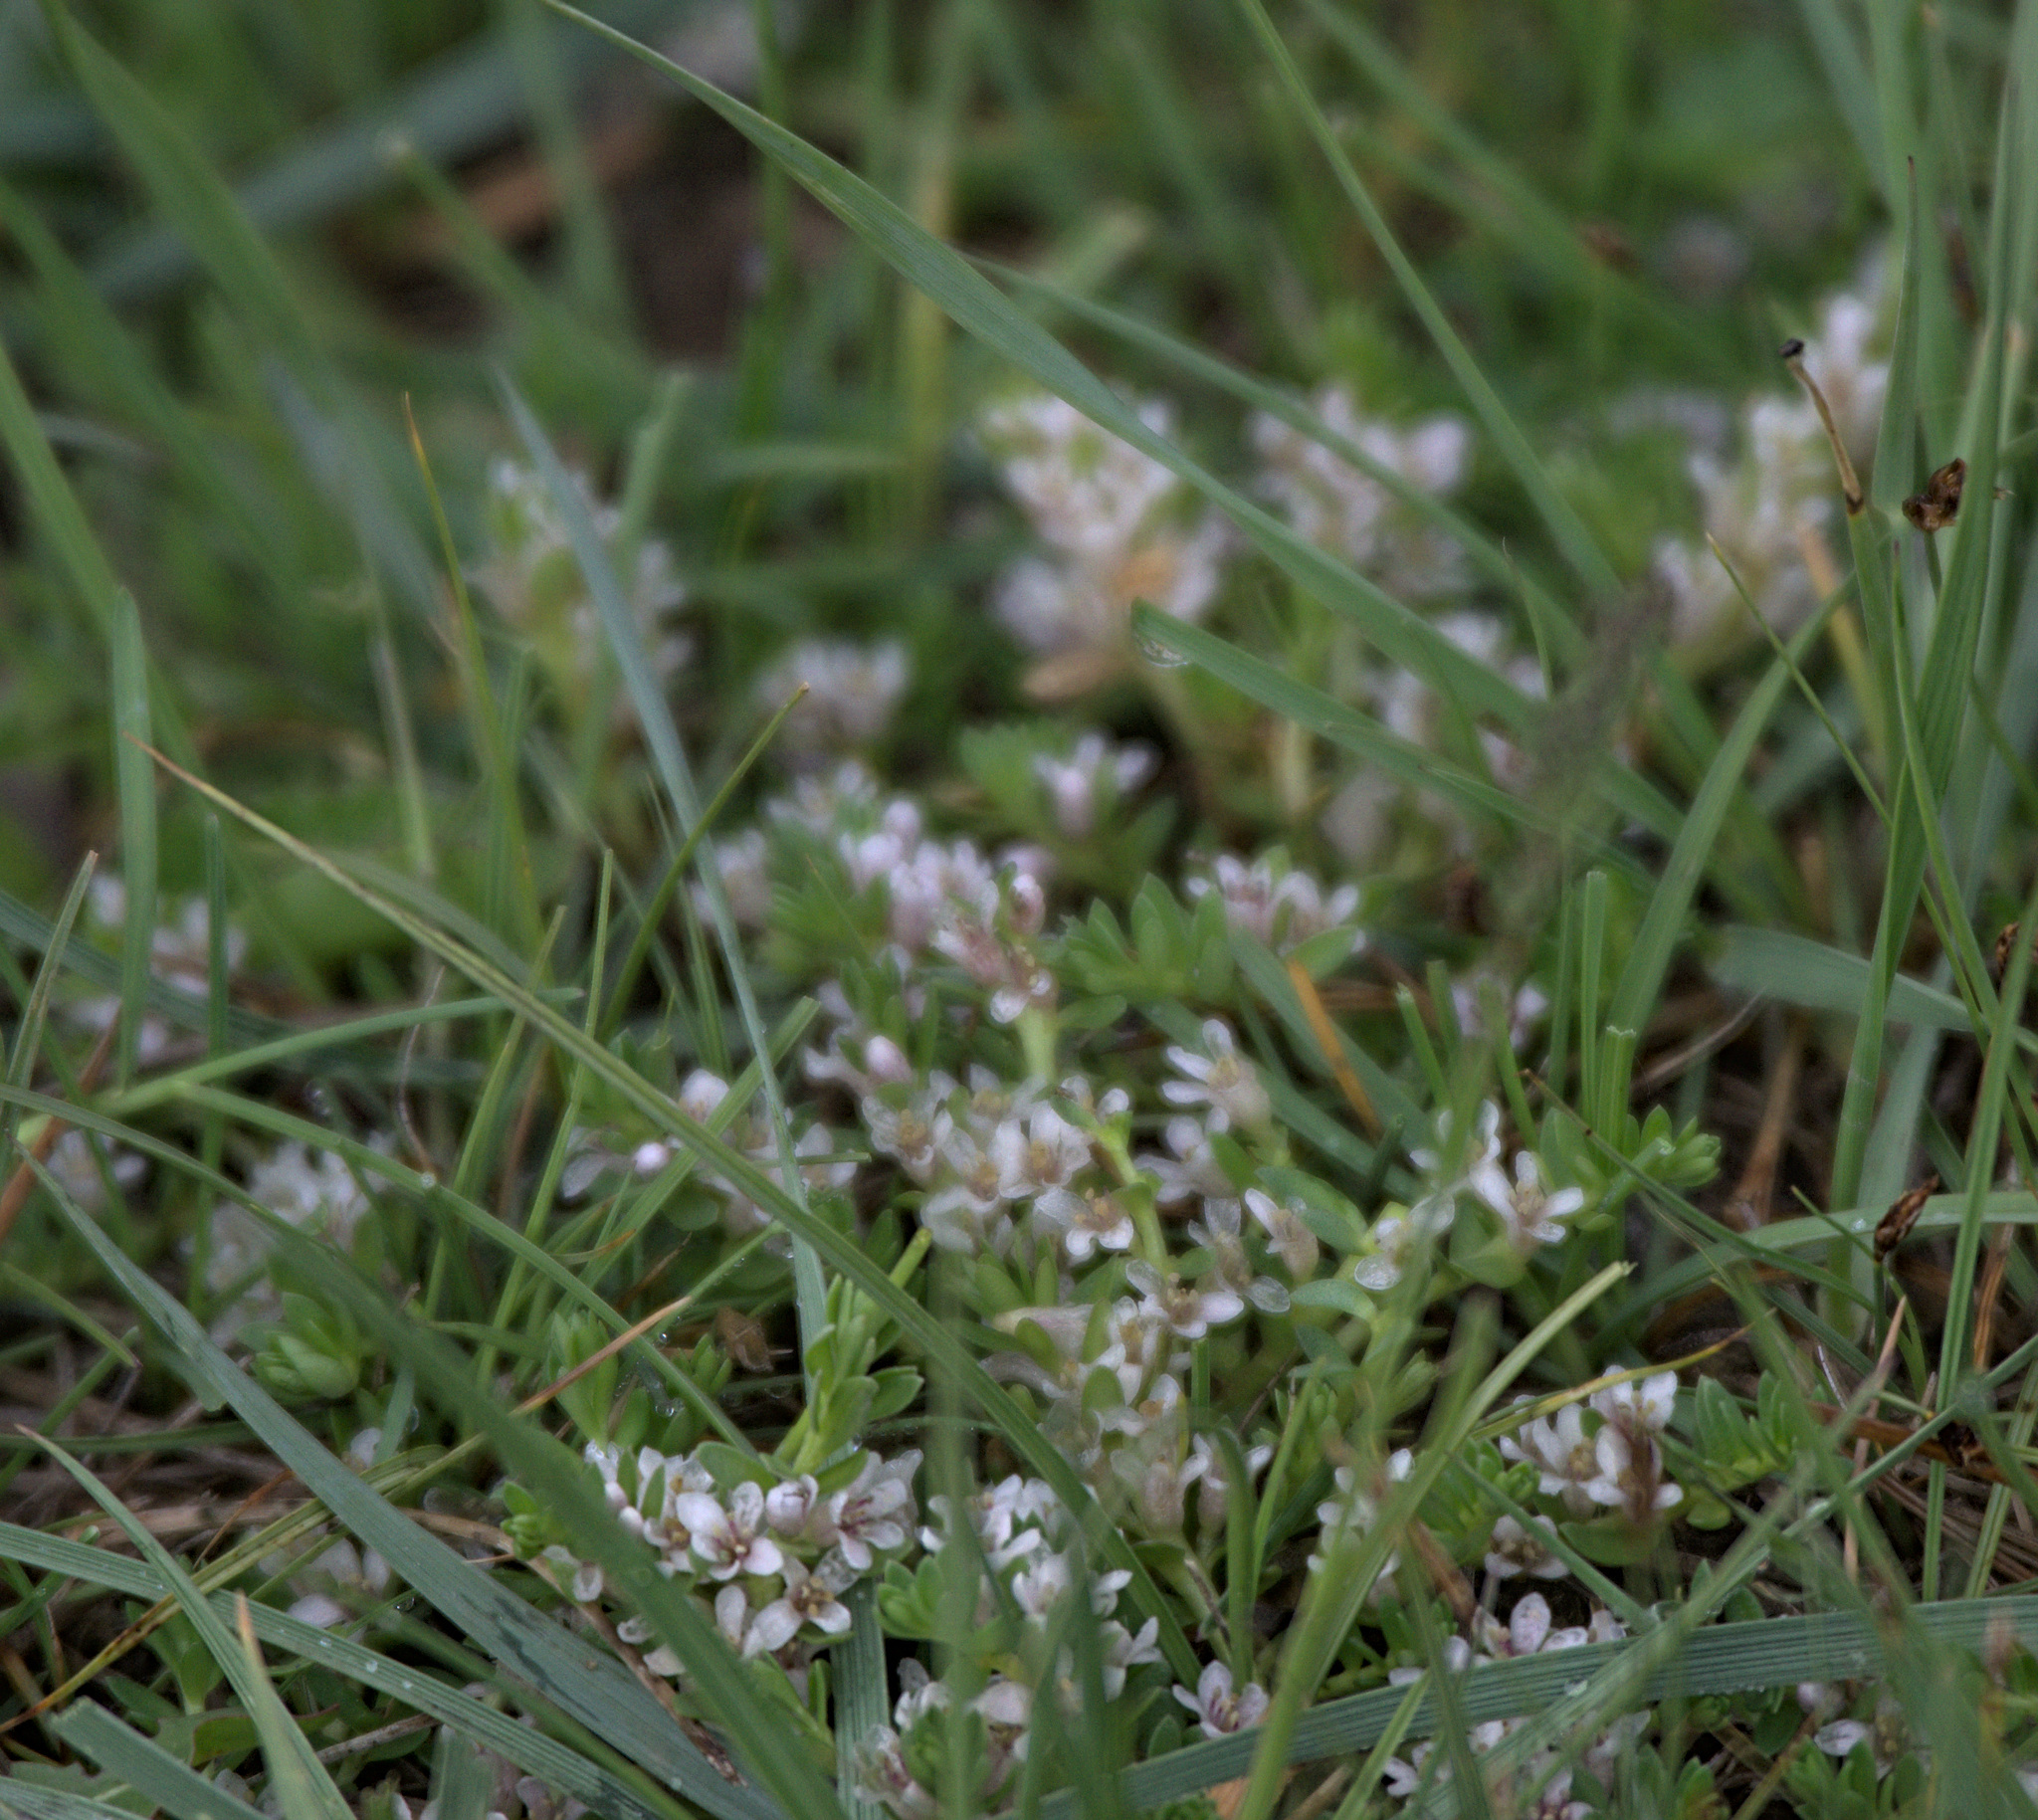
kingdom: Plantae
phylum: Tracheophyta
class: Magnoliopsida
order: Ericales
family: Primulaceae
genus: Lysimachia
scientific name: Lysimachia maritima
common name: Sea milkwort
